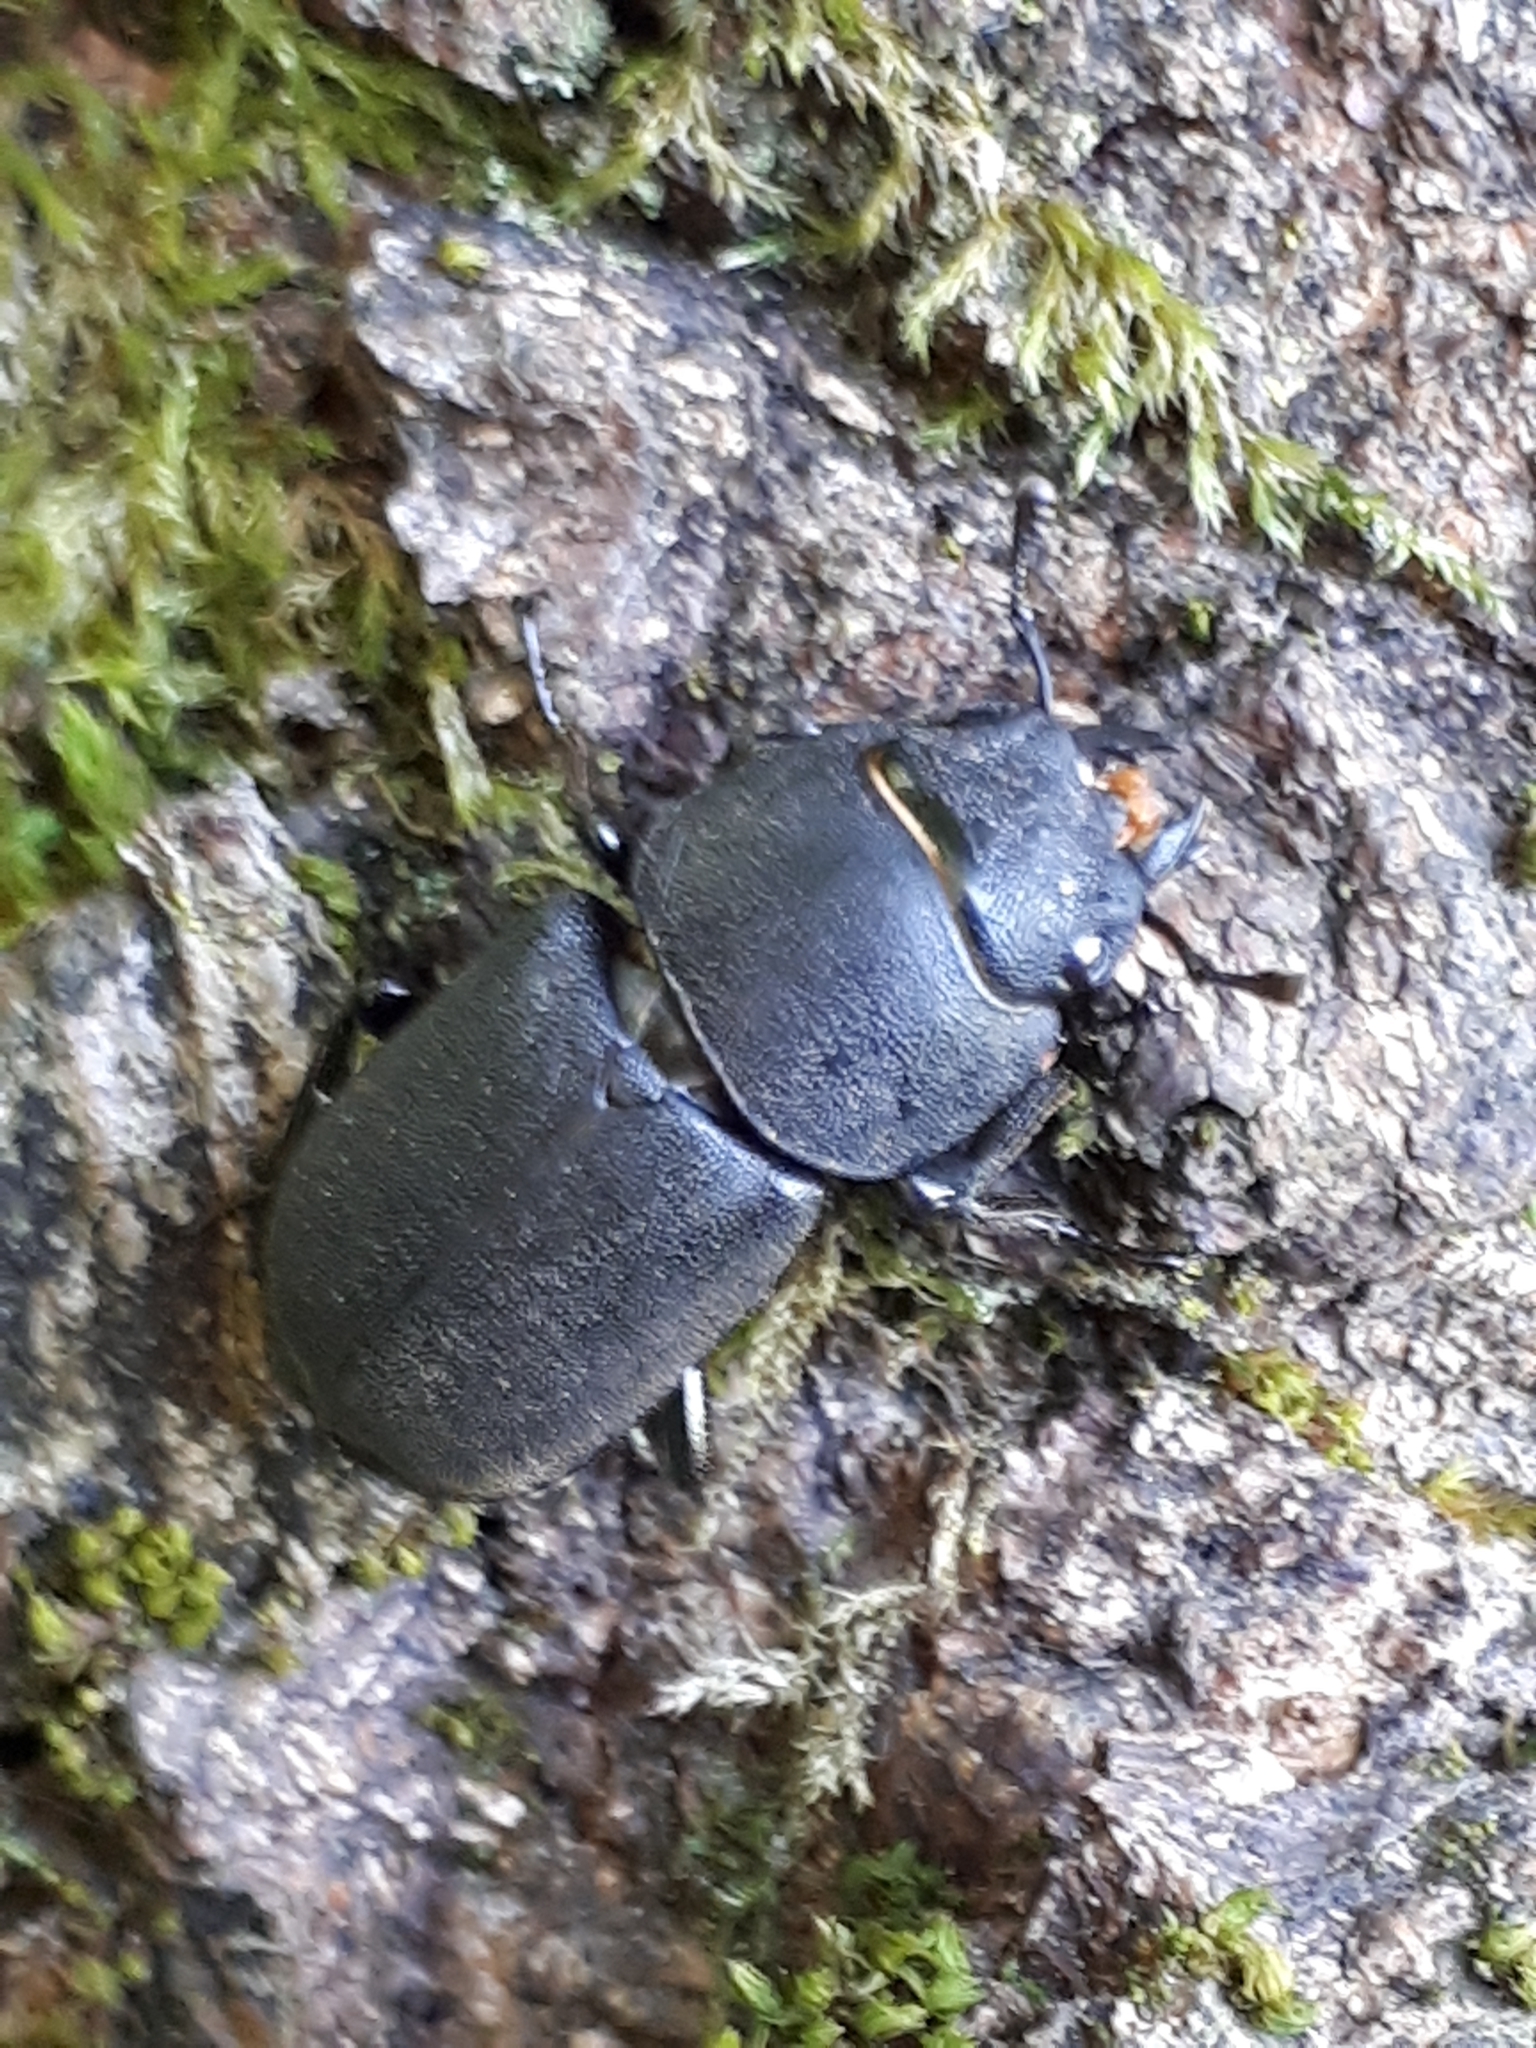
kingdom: Animalia
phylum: Arthropoda
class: Insecta
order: Coleoptera
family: Lucanidae
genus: Dorcus
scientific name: Dorcus parallelipipedus
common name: Lesser stag beetle
